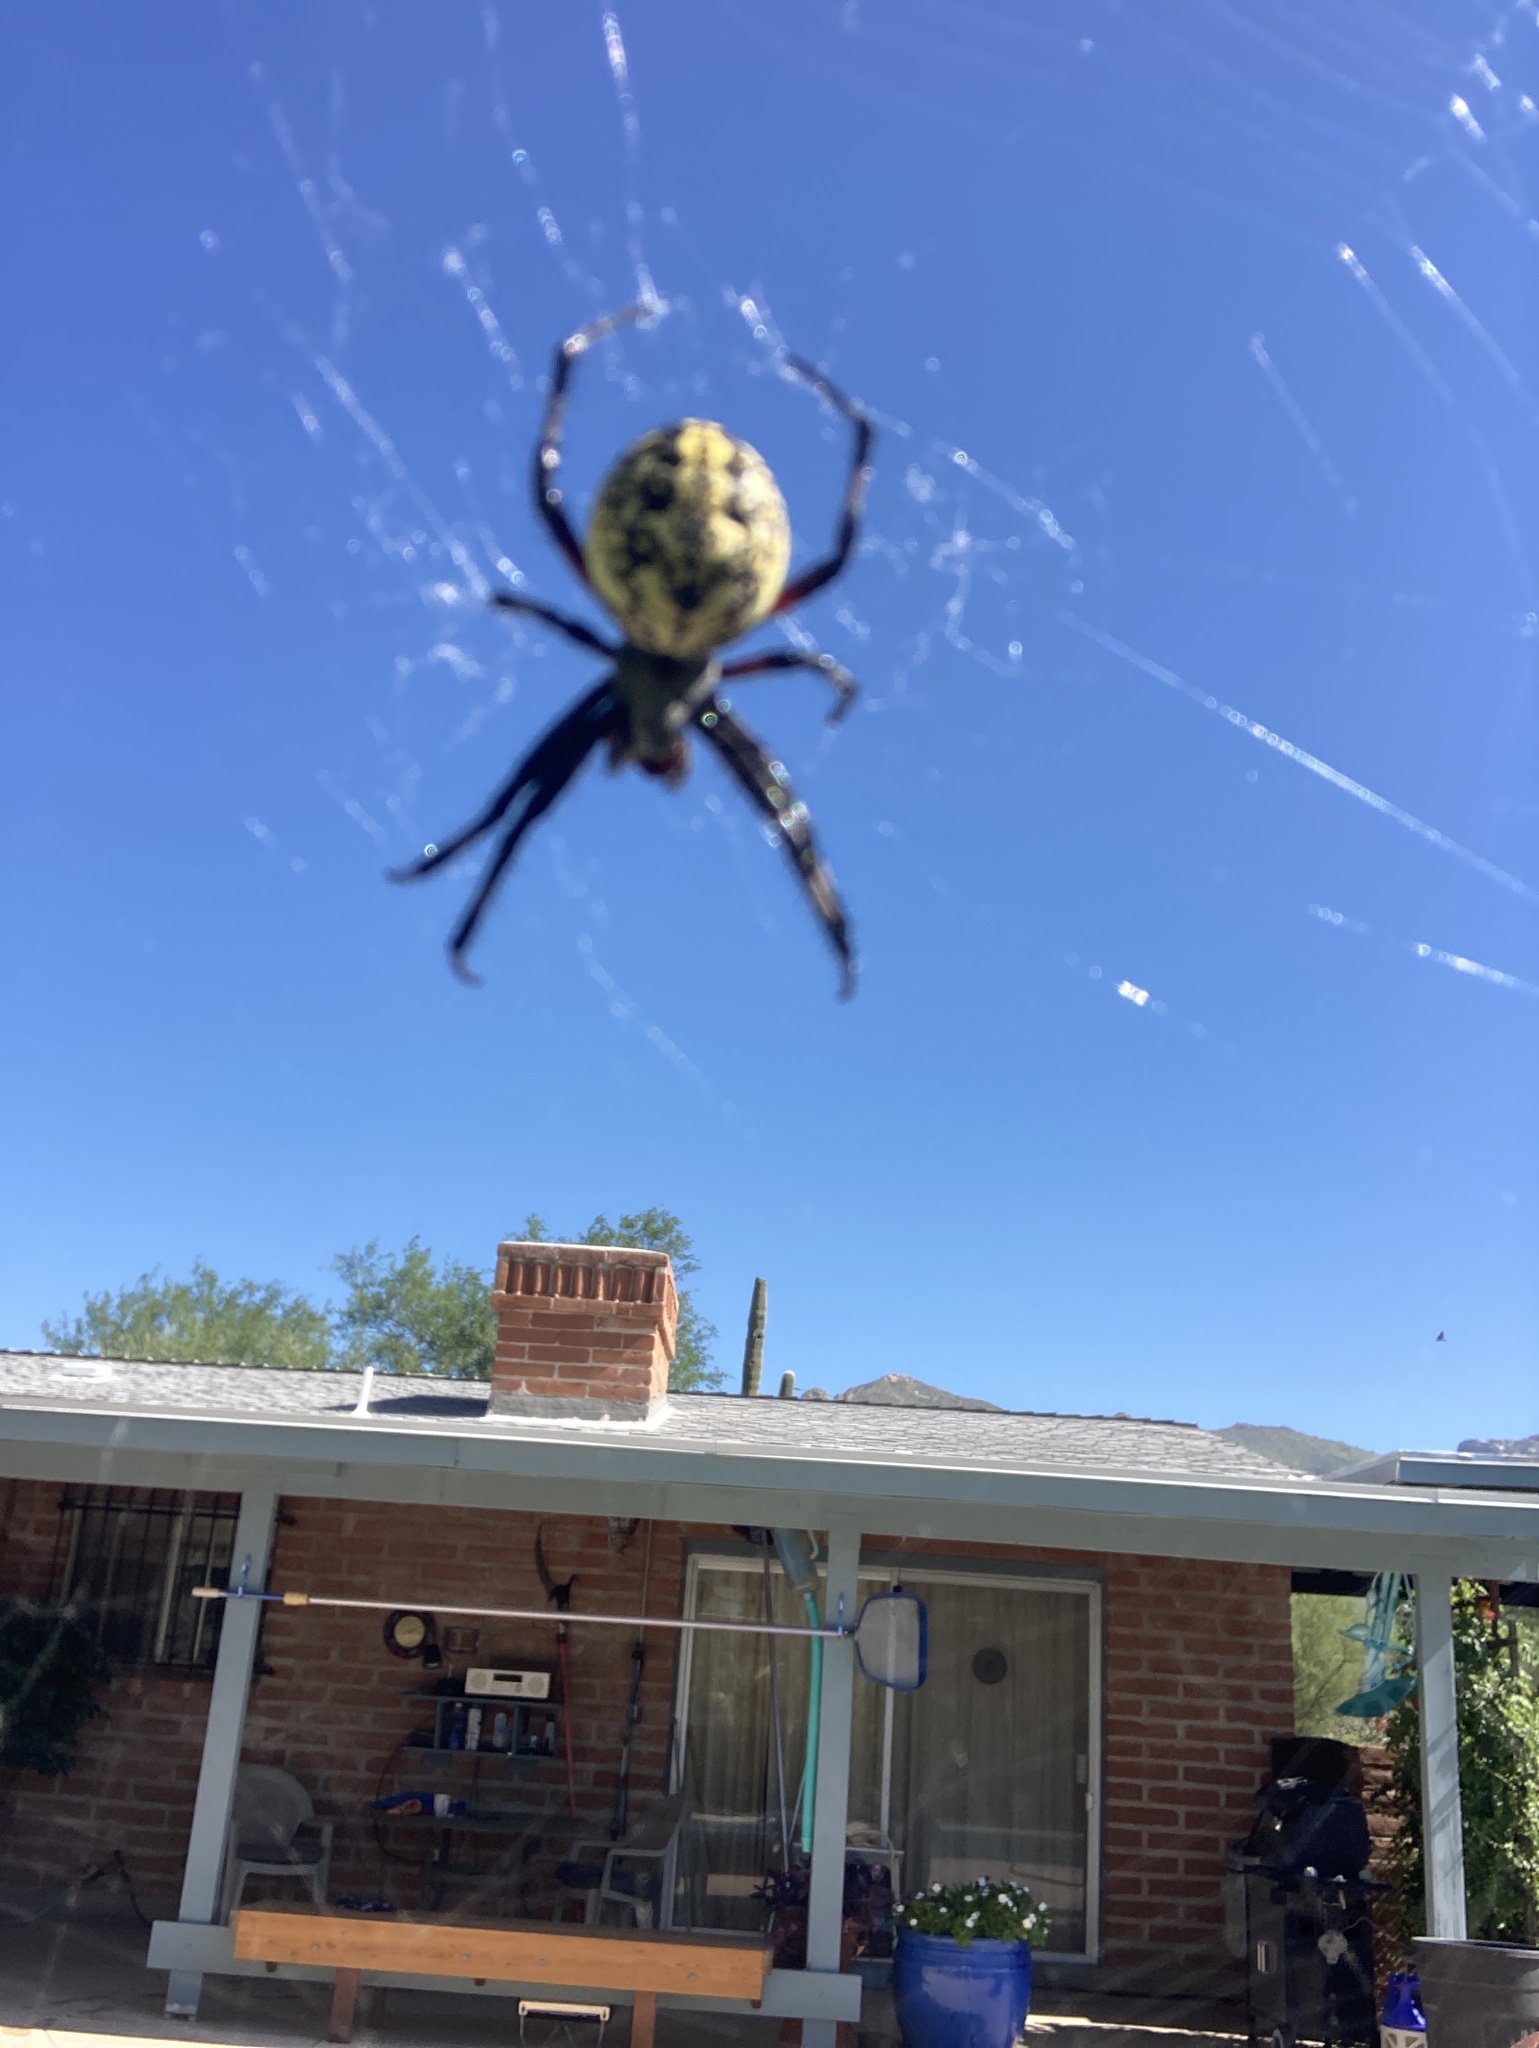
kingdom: Animalia
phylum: Arthropoda
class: Arachnida
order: Araneae
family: Araneidae
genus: Neoscona
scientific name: Neoscona oaxacensis
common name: Orb weavers
